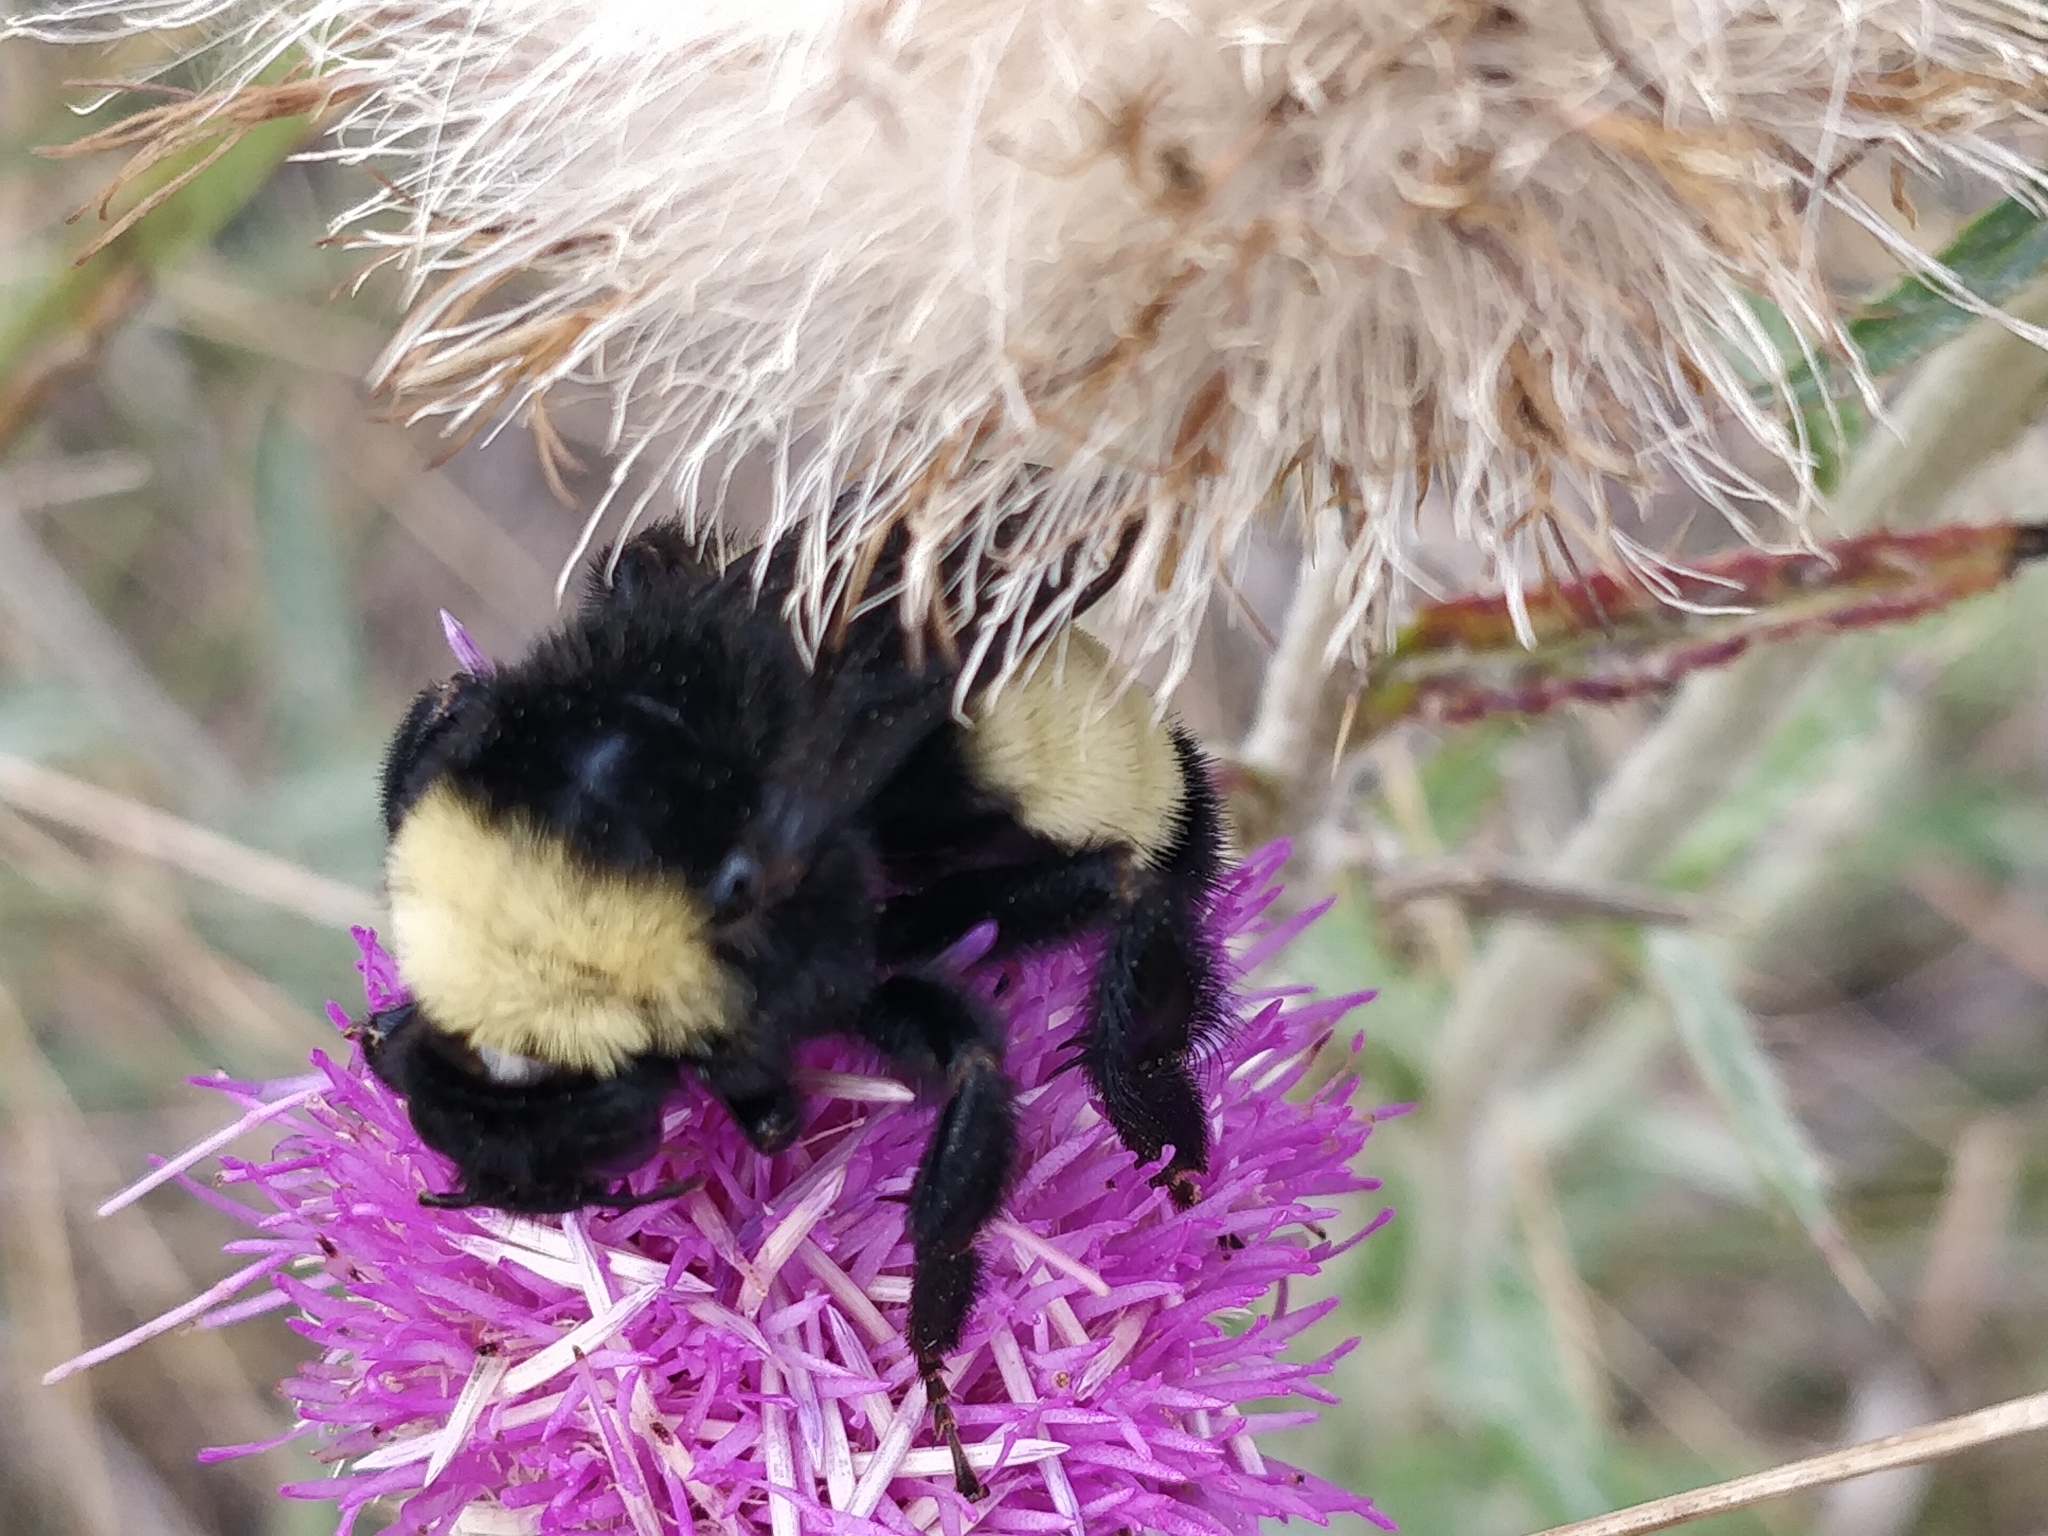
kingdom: Animalia
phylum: Arthropoda
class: Insecta
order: Hymenoptera
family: Apidae
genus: Bombus
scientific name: Bombus pensylvanicus
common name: Bumble bee
